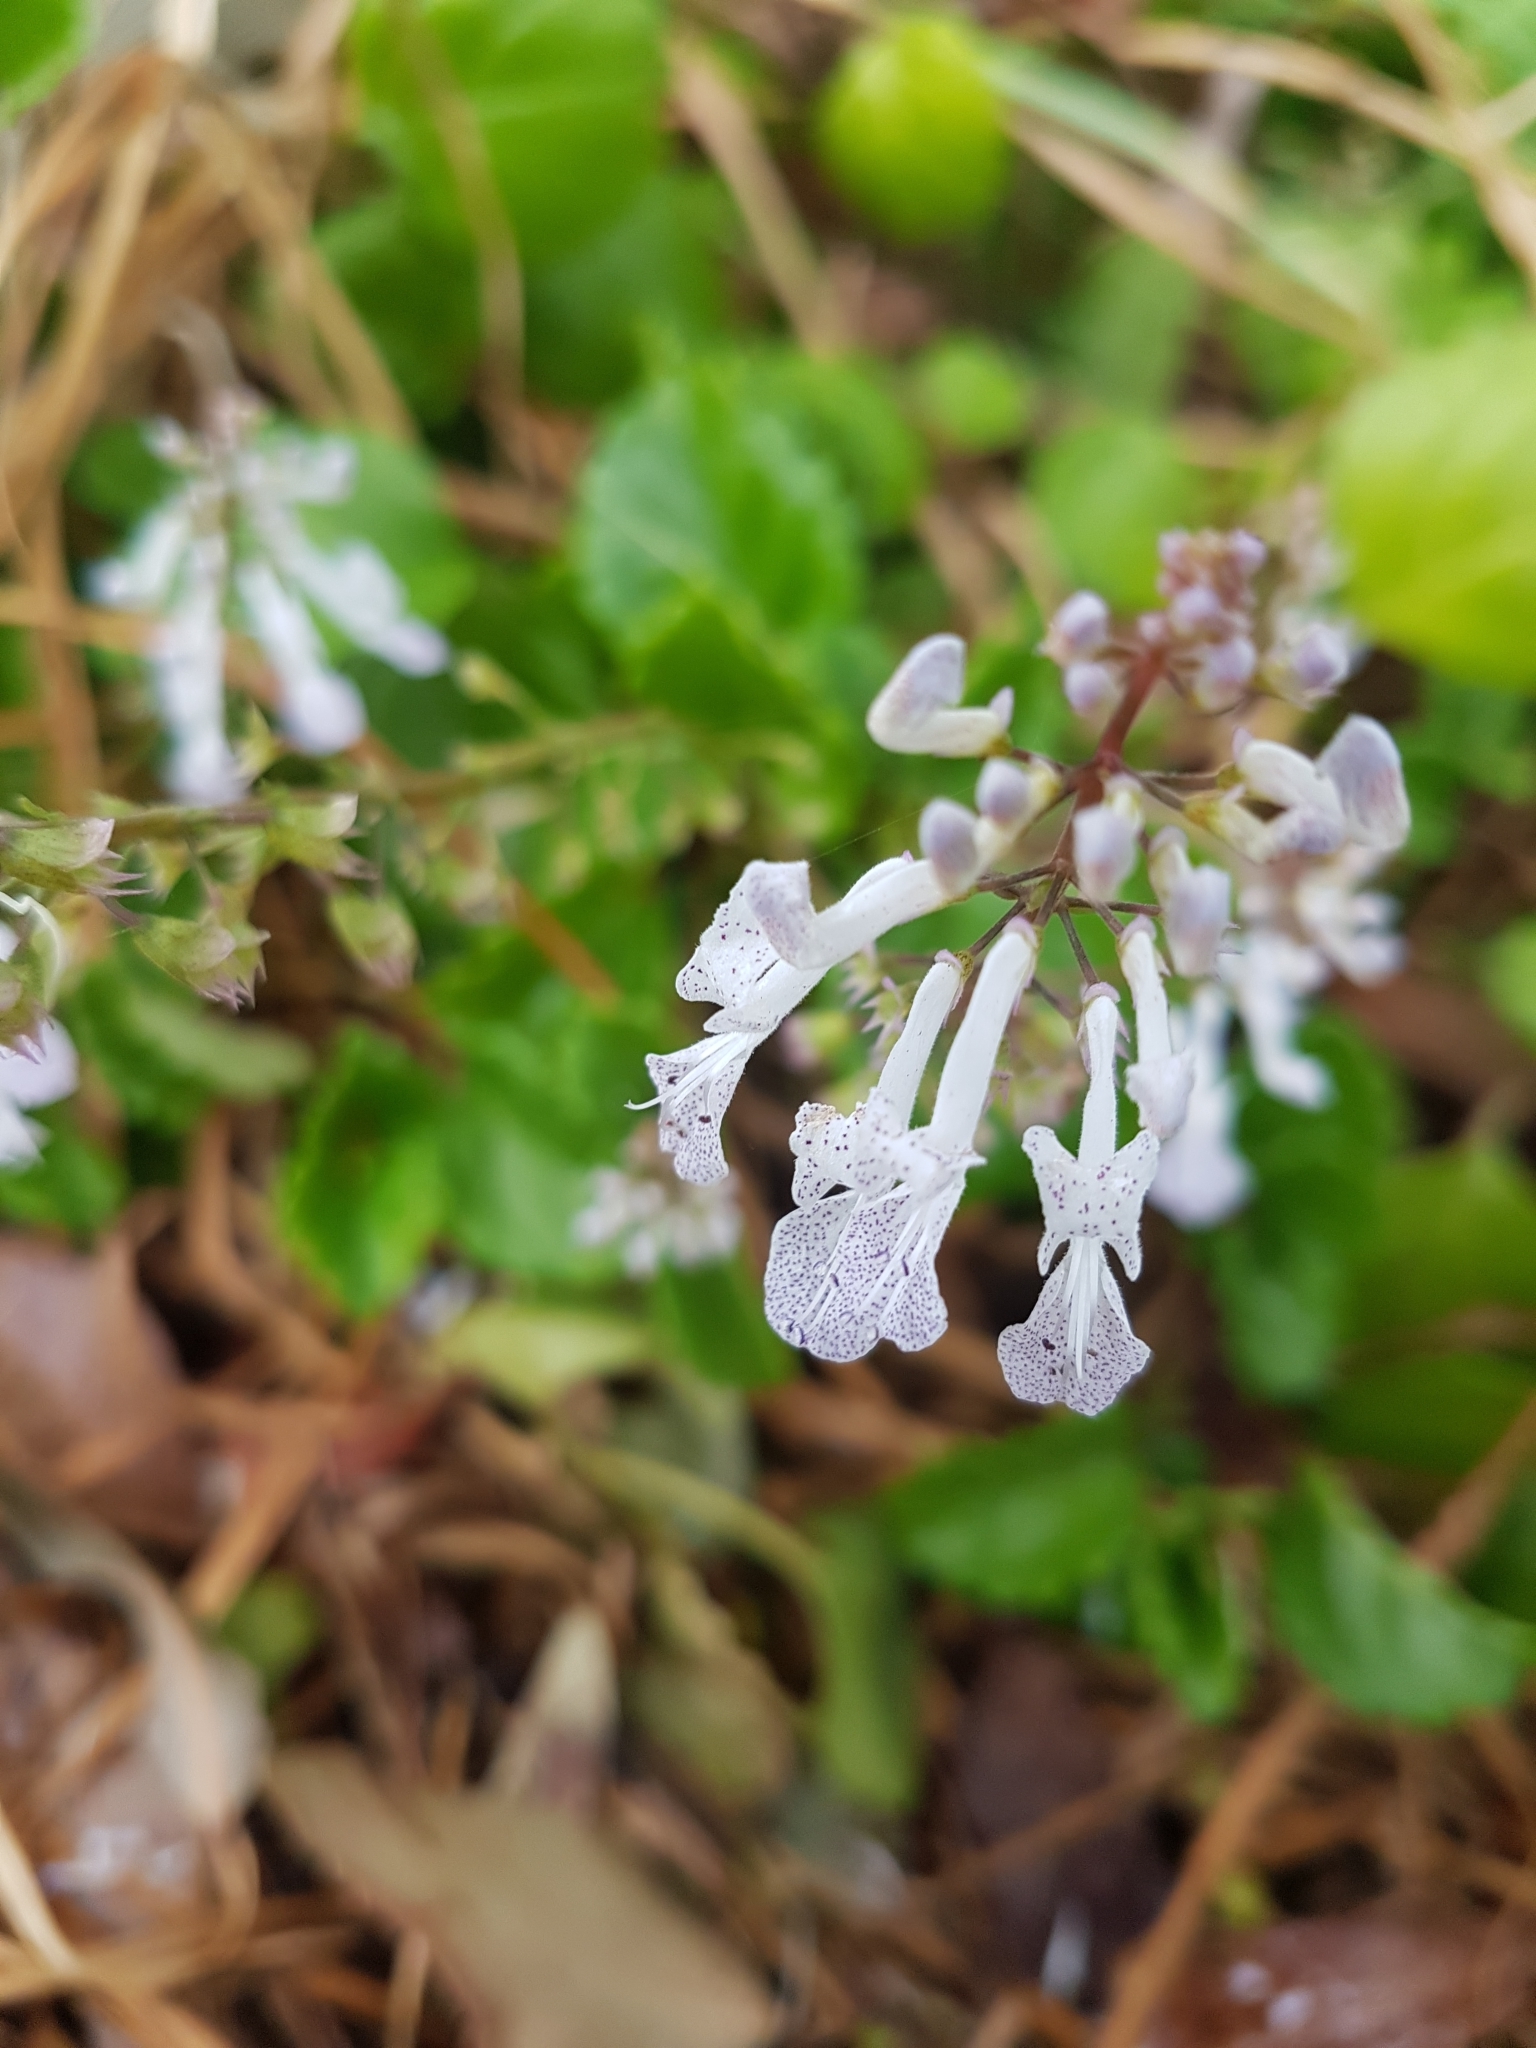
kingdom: Plantae
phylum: Tracheophyta
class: Magnoliopsida
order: Lamiales
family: Lamiaceae
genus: Plectranthus
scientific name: Plectranthus verticillatus
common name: Whorled plectranthus
